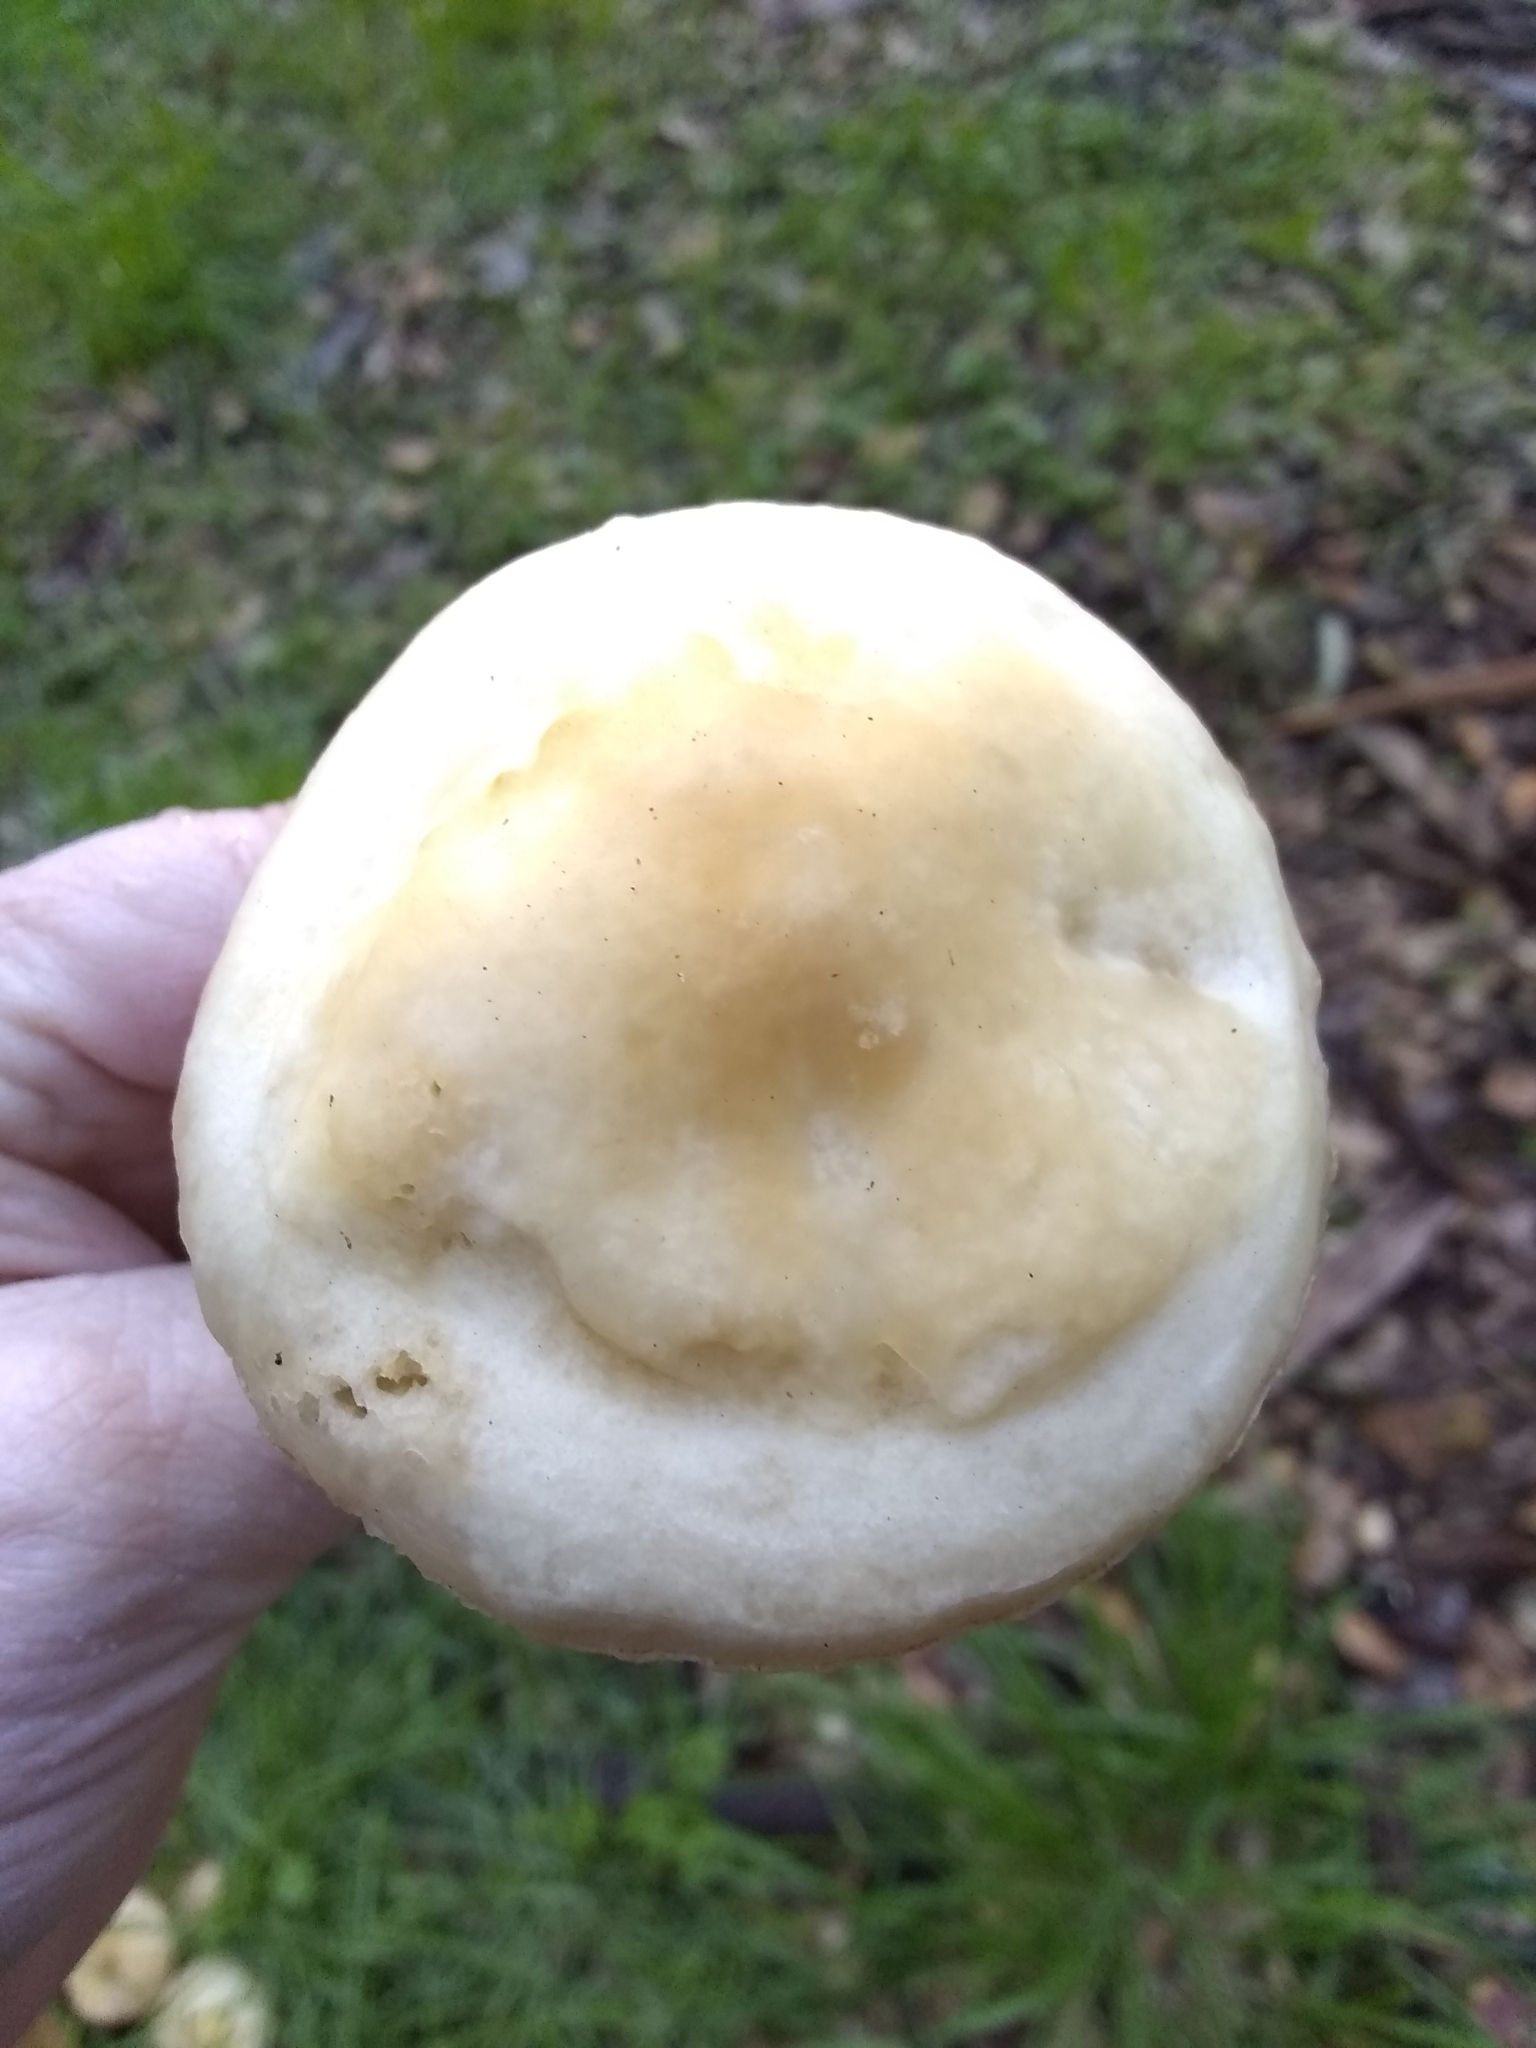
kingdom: Fungi
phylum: Basidiomycota
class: Agaricomycetes
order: Agaricales
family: Strophariaceae
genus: Agrocybe
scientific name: Agrocybe praecox
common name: Spring fieldcap
